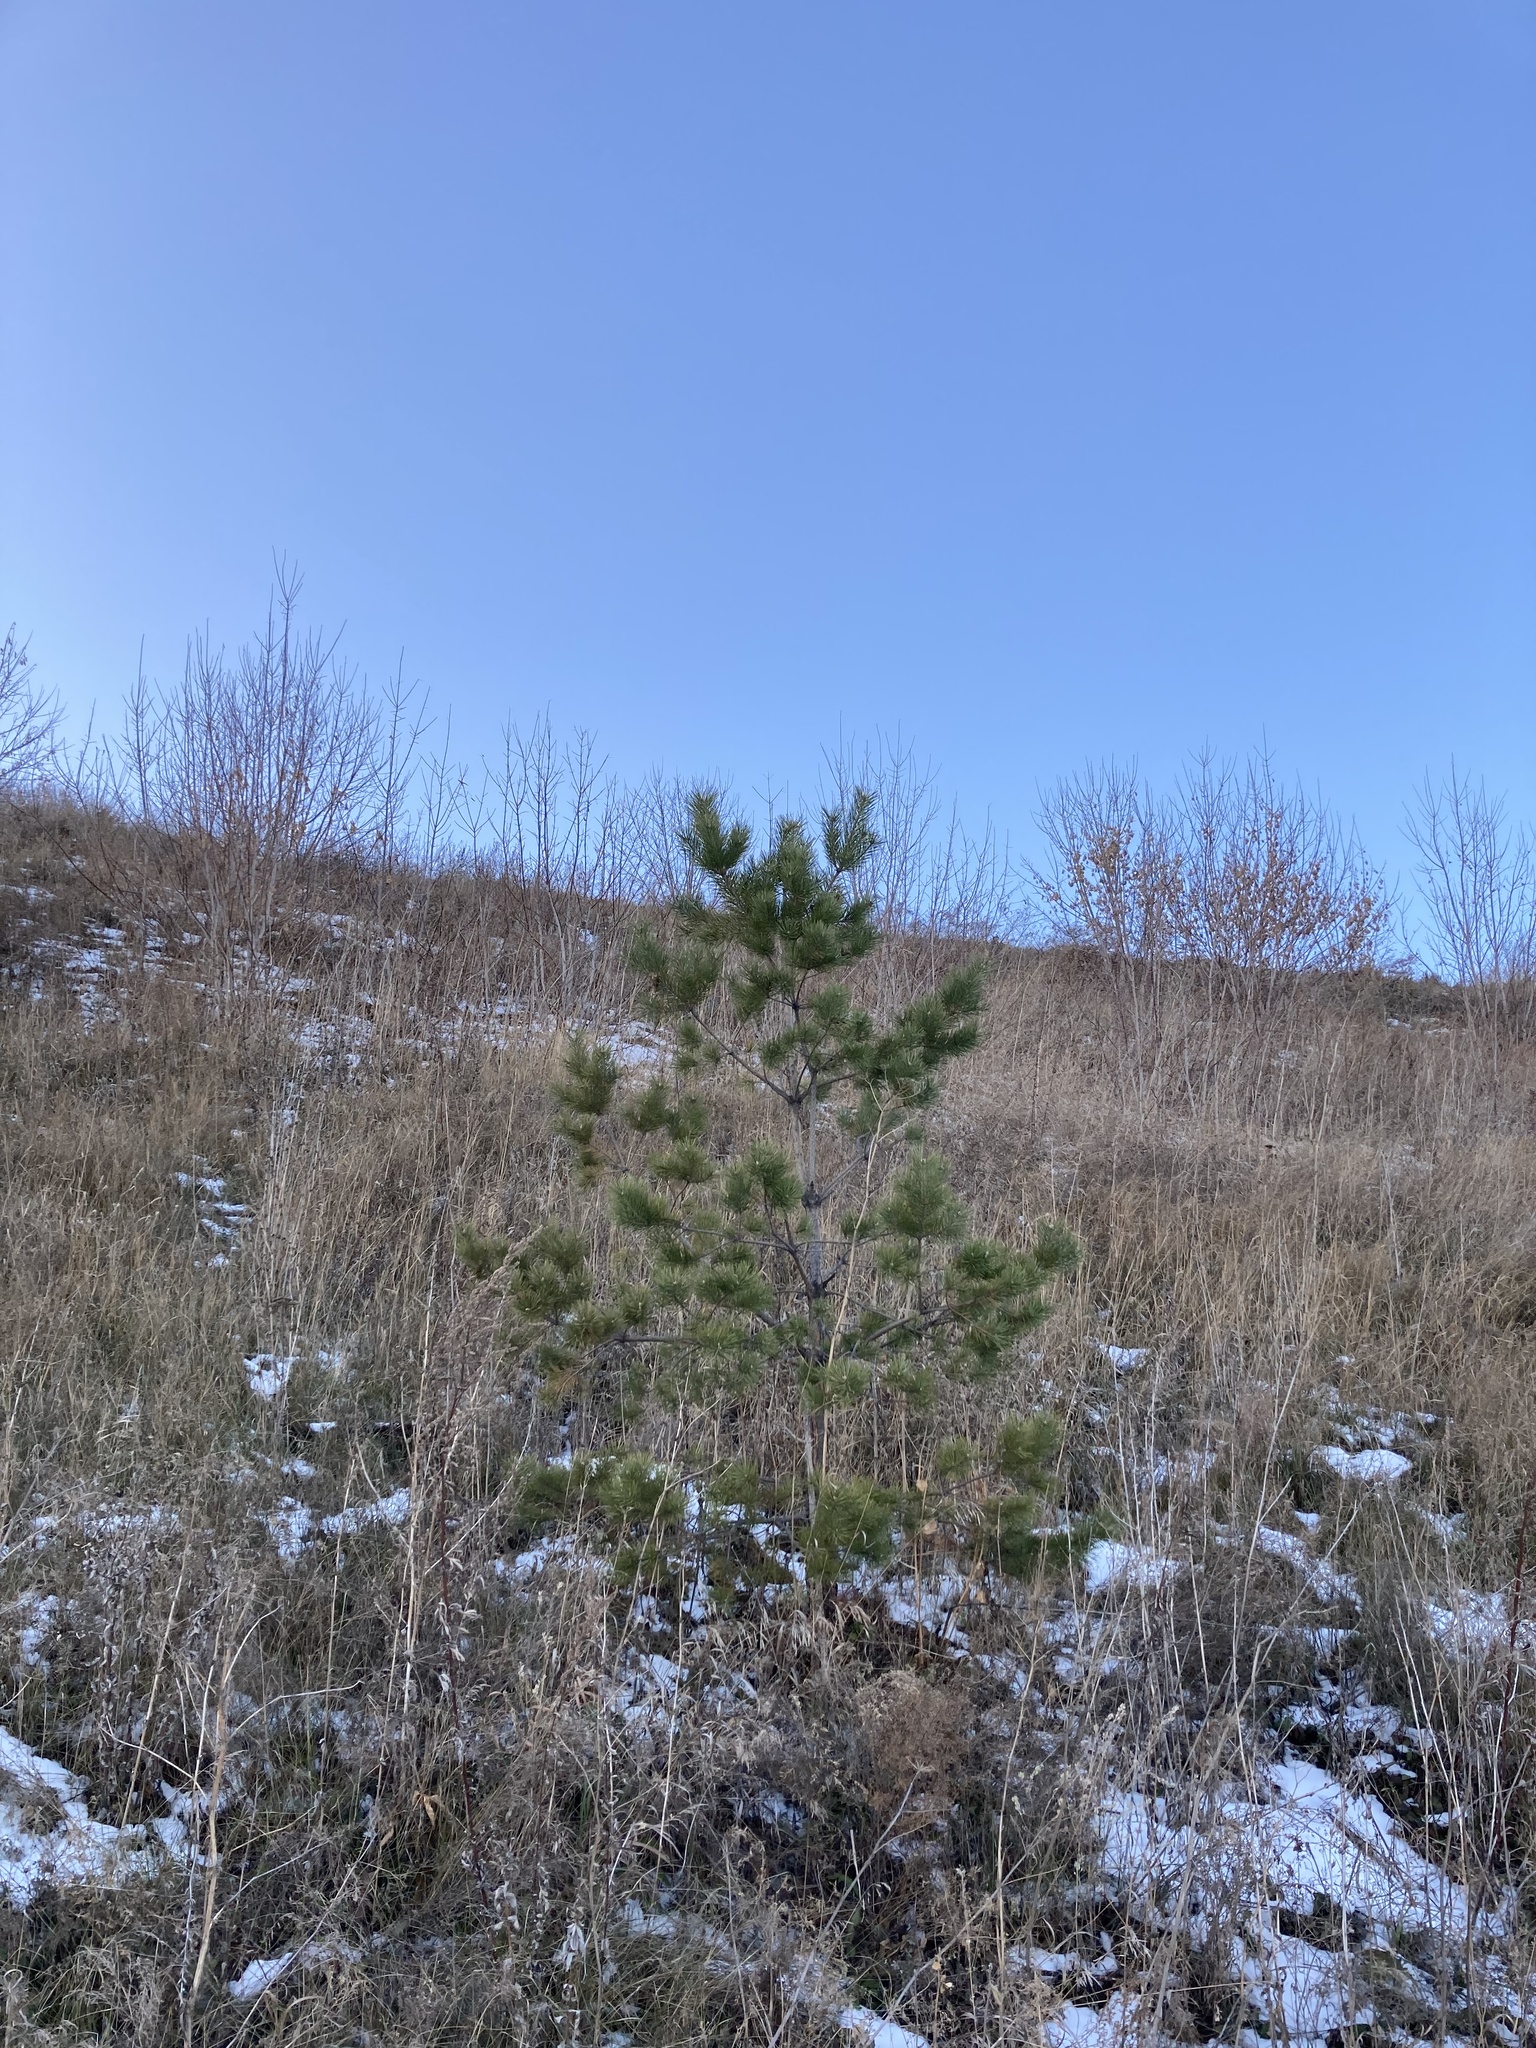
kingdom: Plantae
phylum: Tracheophyta
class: Pinopsida
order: Pinales
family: Pinaceae
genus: Pinus
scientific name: Pinus sylvestris
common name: Scots pine
